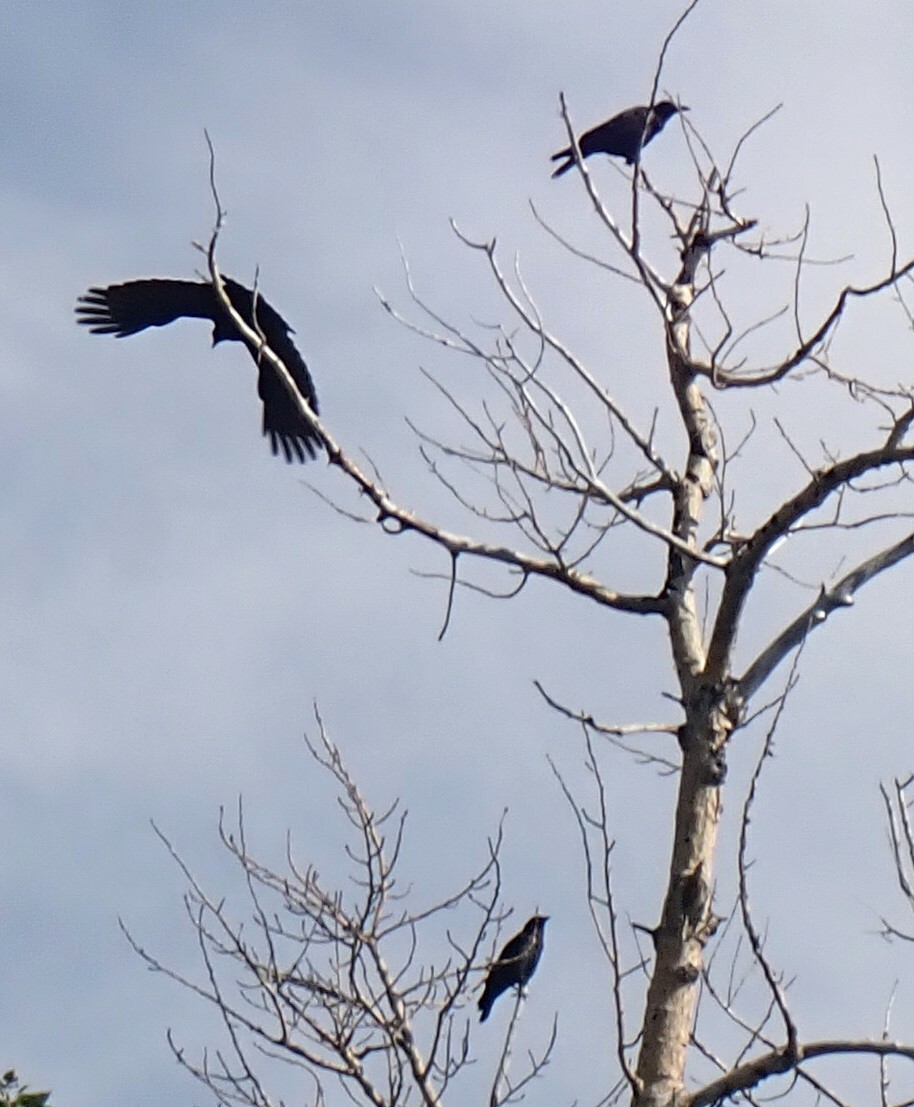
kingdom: Animalia
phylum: Chordata
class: Aves
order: Passeriformes
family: Corvidae
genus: Corvus
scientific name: Corvus brachyrhynchos
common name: American crow
